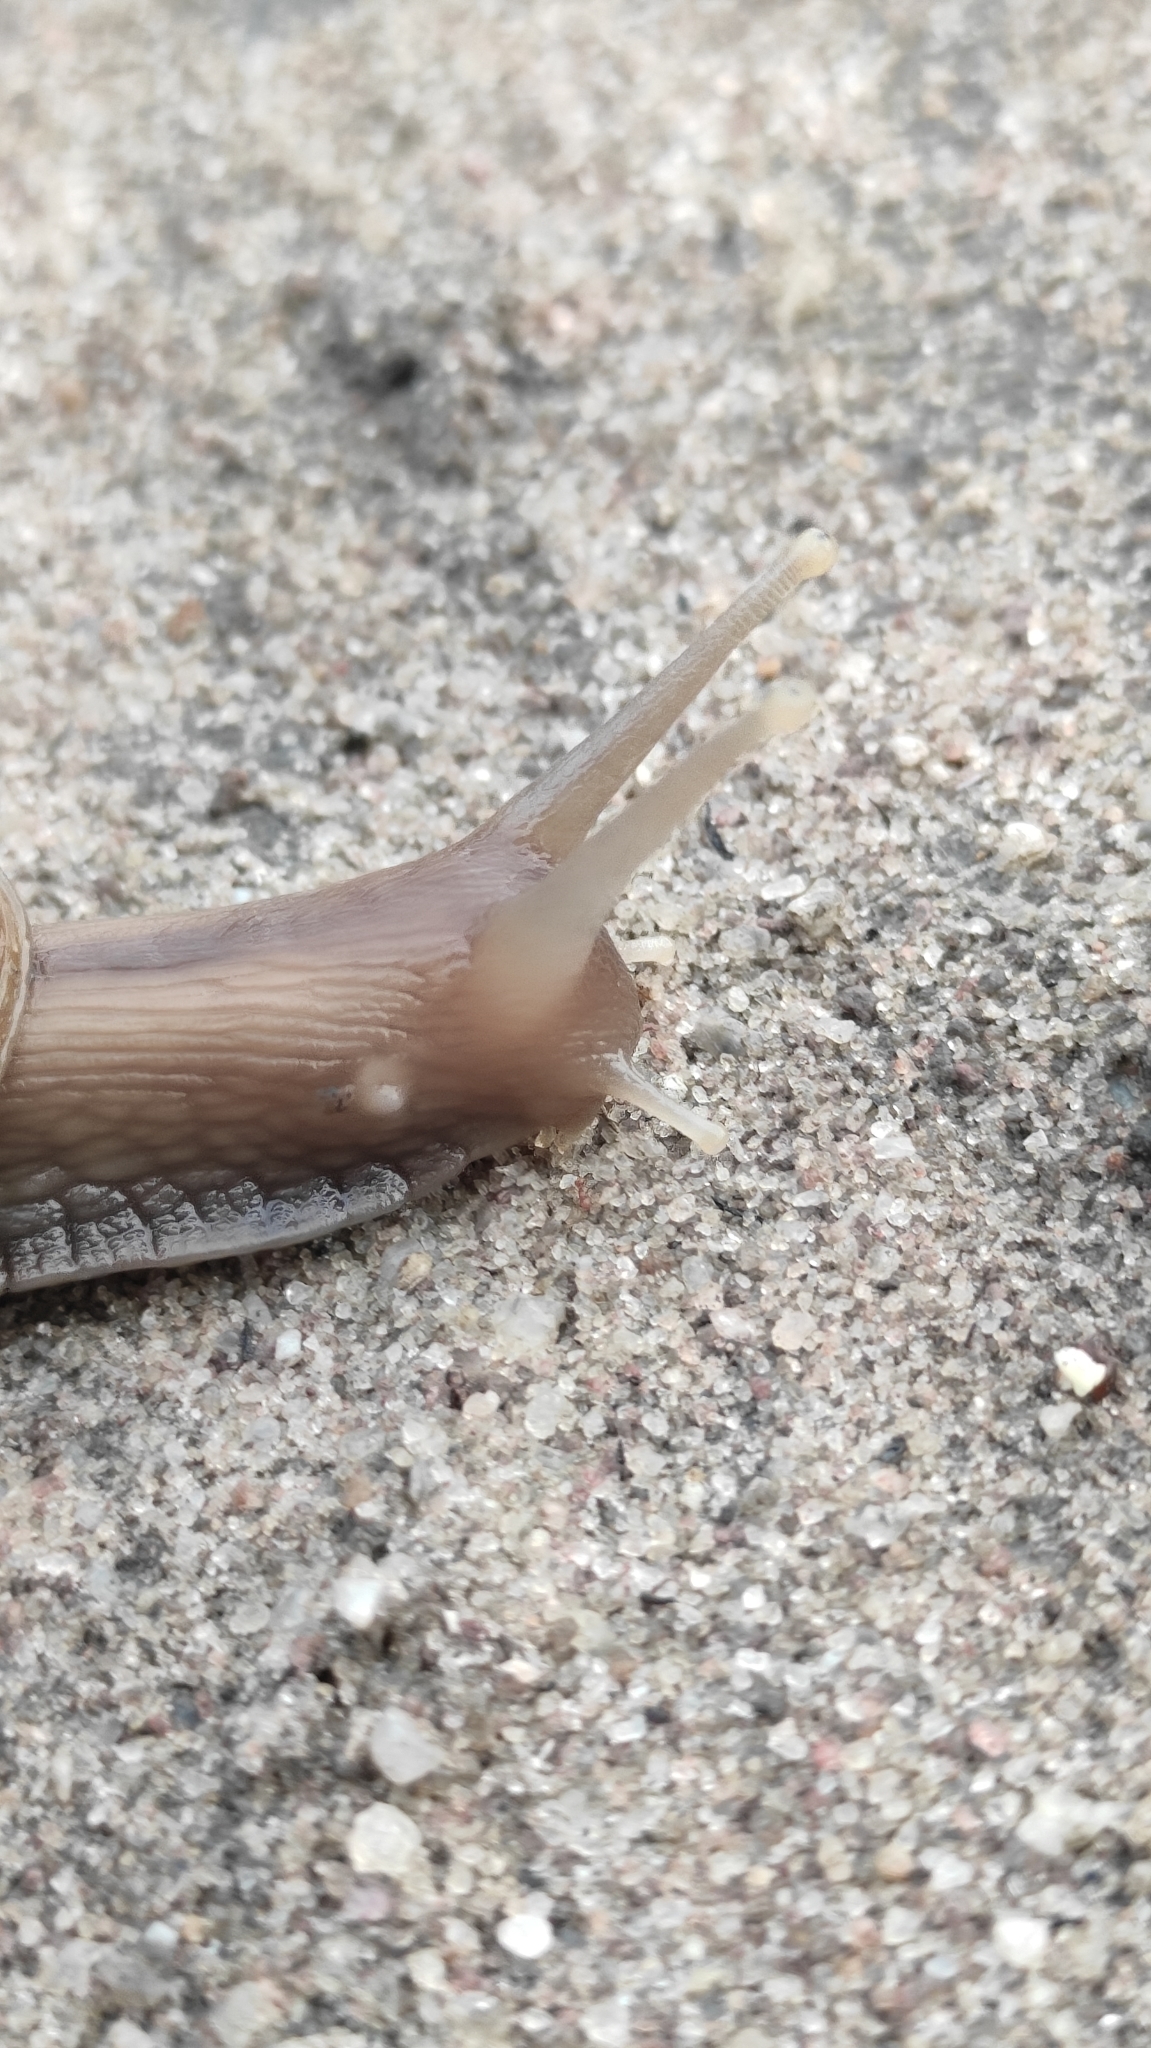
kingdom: Animalia
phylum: Mollusca
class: Gastropoda
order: Stylommatophora
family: Achatinidae
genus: Lissachatina
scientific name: Lissachatina fulica
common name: Giant african snail
